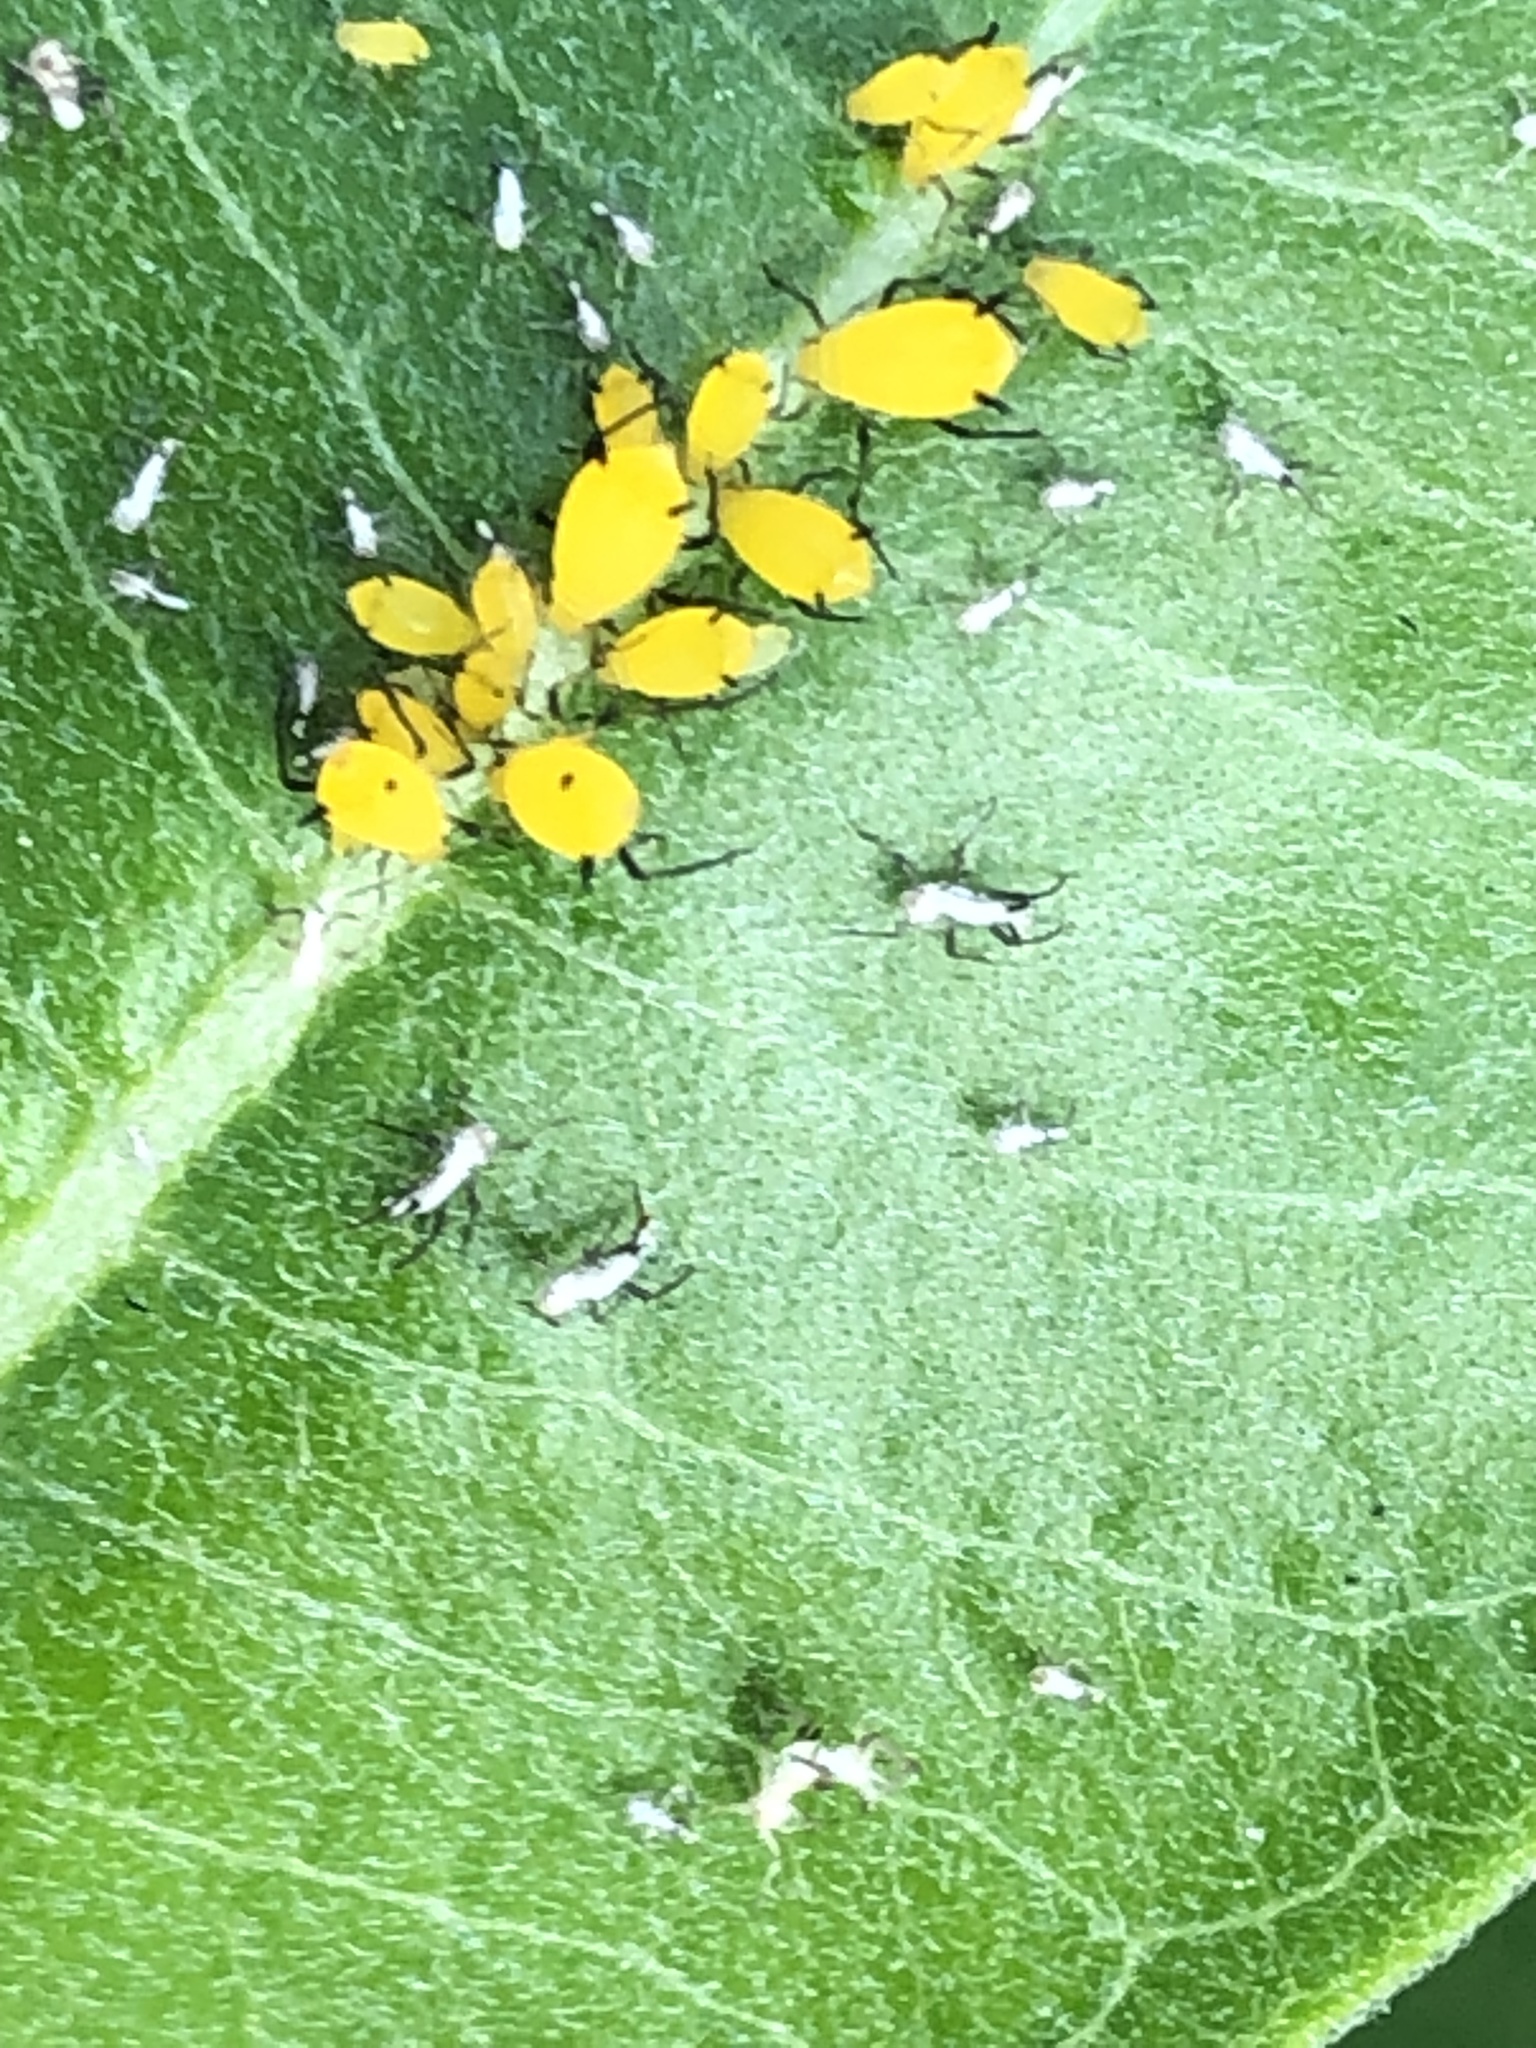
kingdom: Animalia
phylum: Arthropoda
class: Insecta
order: Hemiptera
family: Aphididae
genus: Aphis
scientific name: Aphis nerii
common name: Oleander aphid
